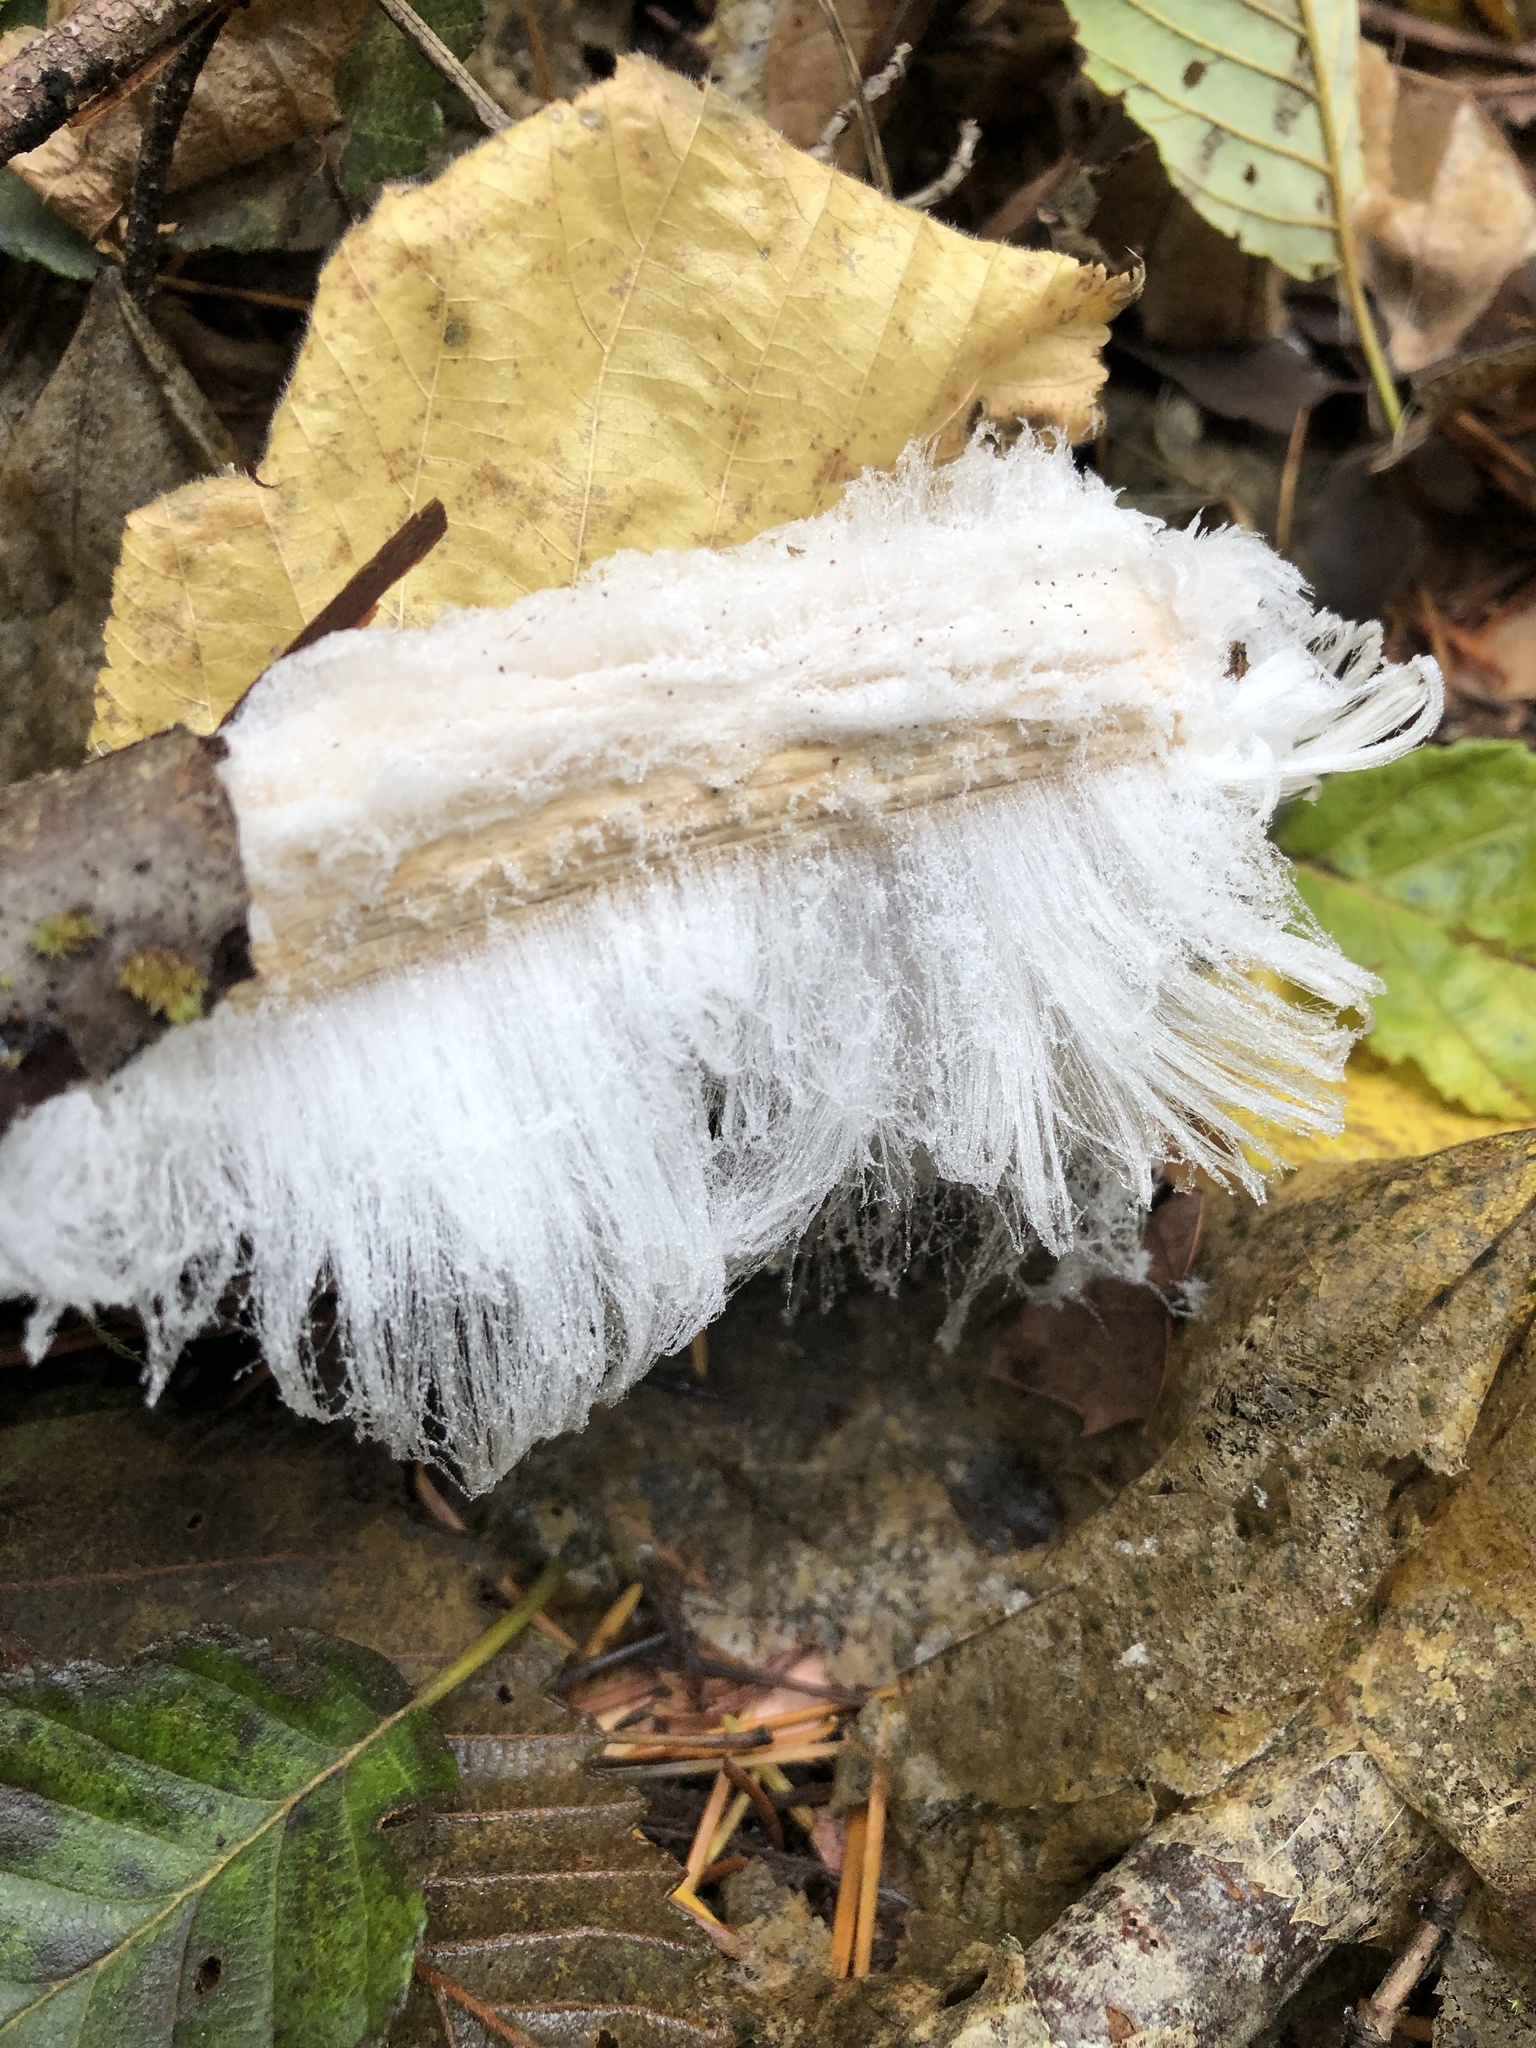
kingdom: Fungi
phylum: Basidiomycota
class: Agaricomycetes
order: Auriculariales
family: Auriculariaceae
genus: Exidiopsis
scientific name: Exidiopsis effusa
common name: Hair ice crust
